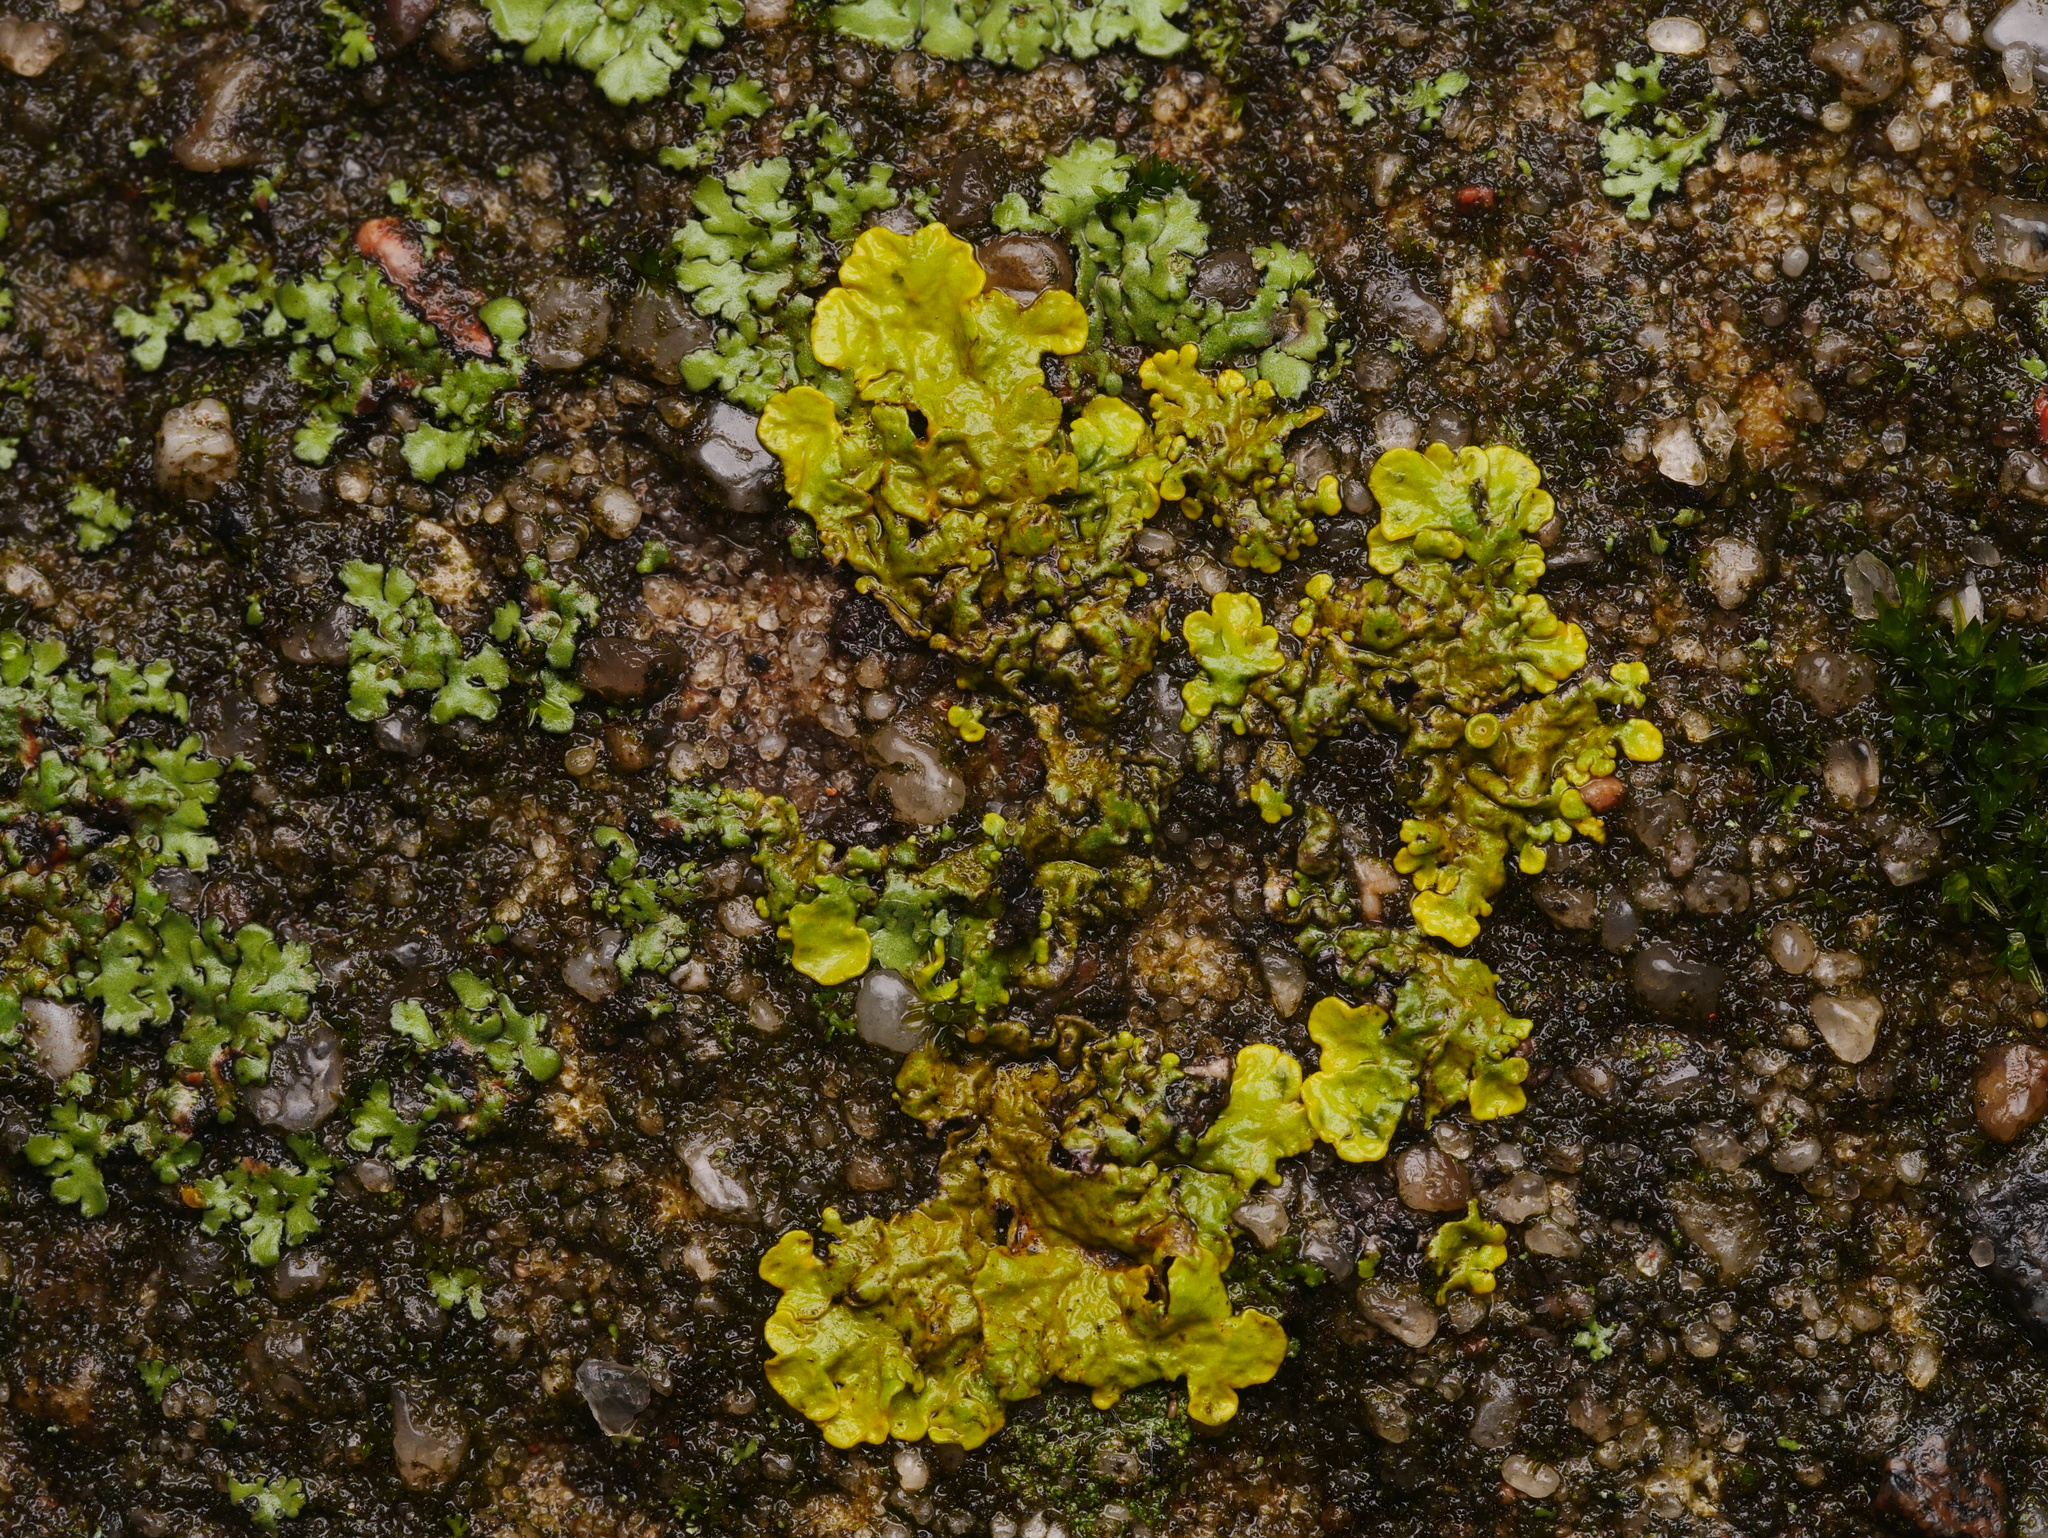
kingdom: Fungi
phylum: Ascomycota
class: Lecanoromycetes
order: Teloschistales
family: Teloschistaceae
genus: Xanthoria
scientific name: Xanthoria parietina
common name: Common orange lichen
